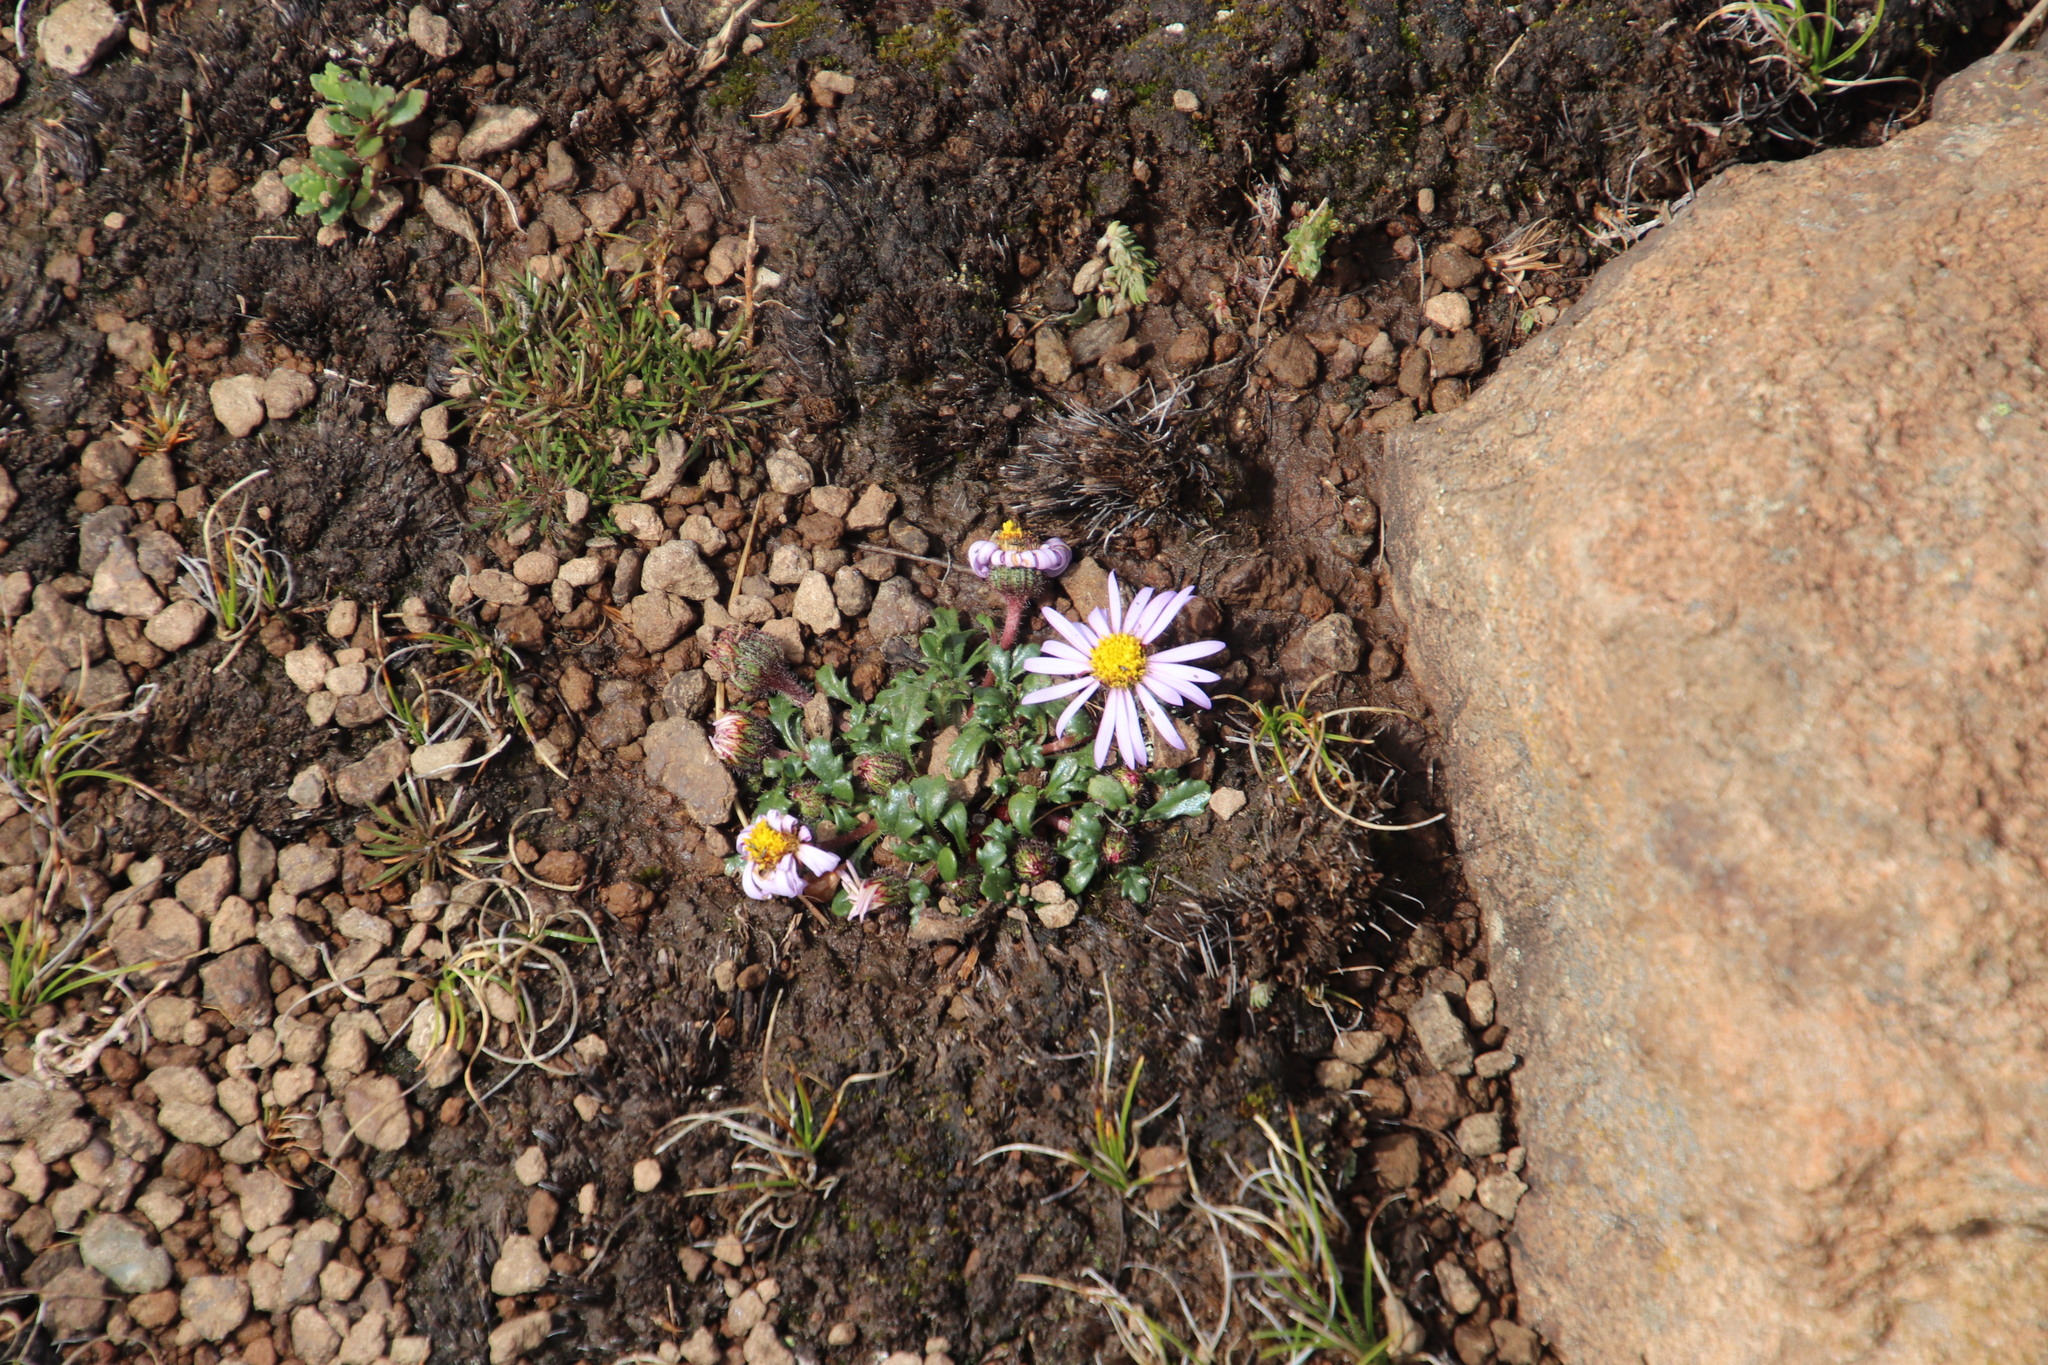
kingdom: Plantae
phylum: Tracheophyta
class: Magnoliopsida
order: Asterales
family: Asteraceae
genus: Afroaster
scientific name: Afroaster erucifolius
